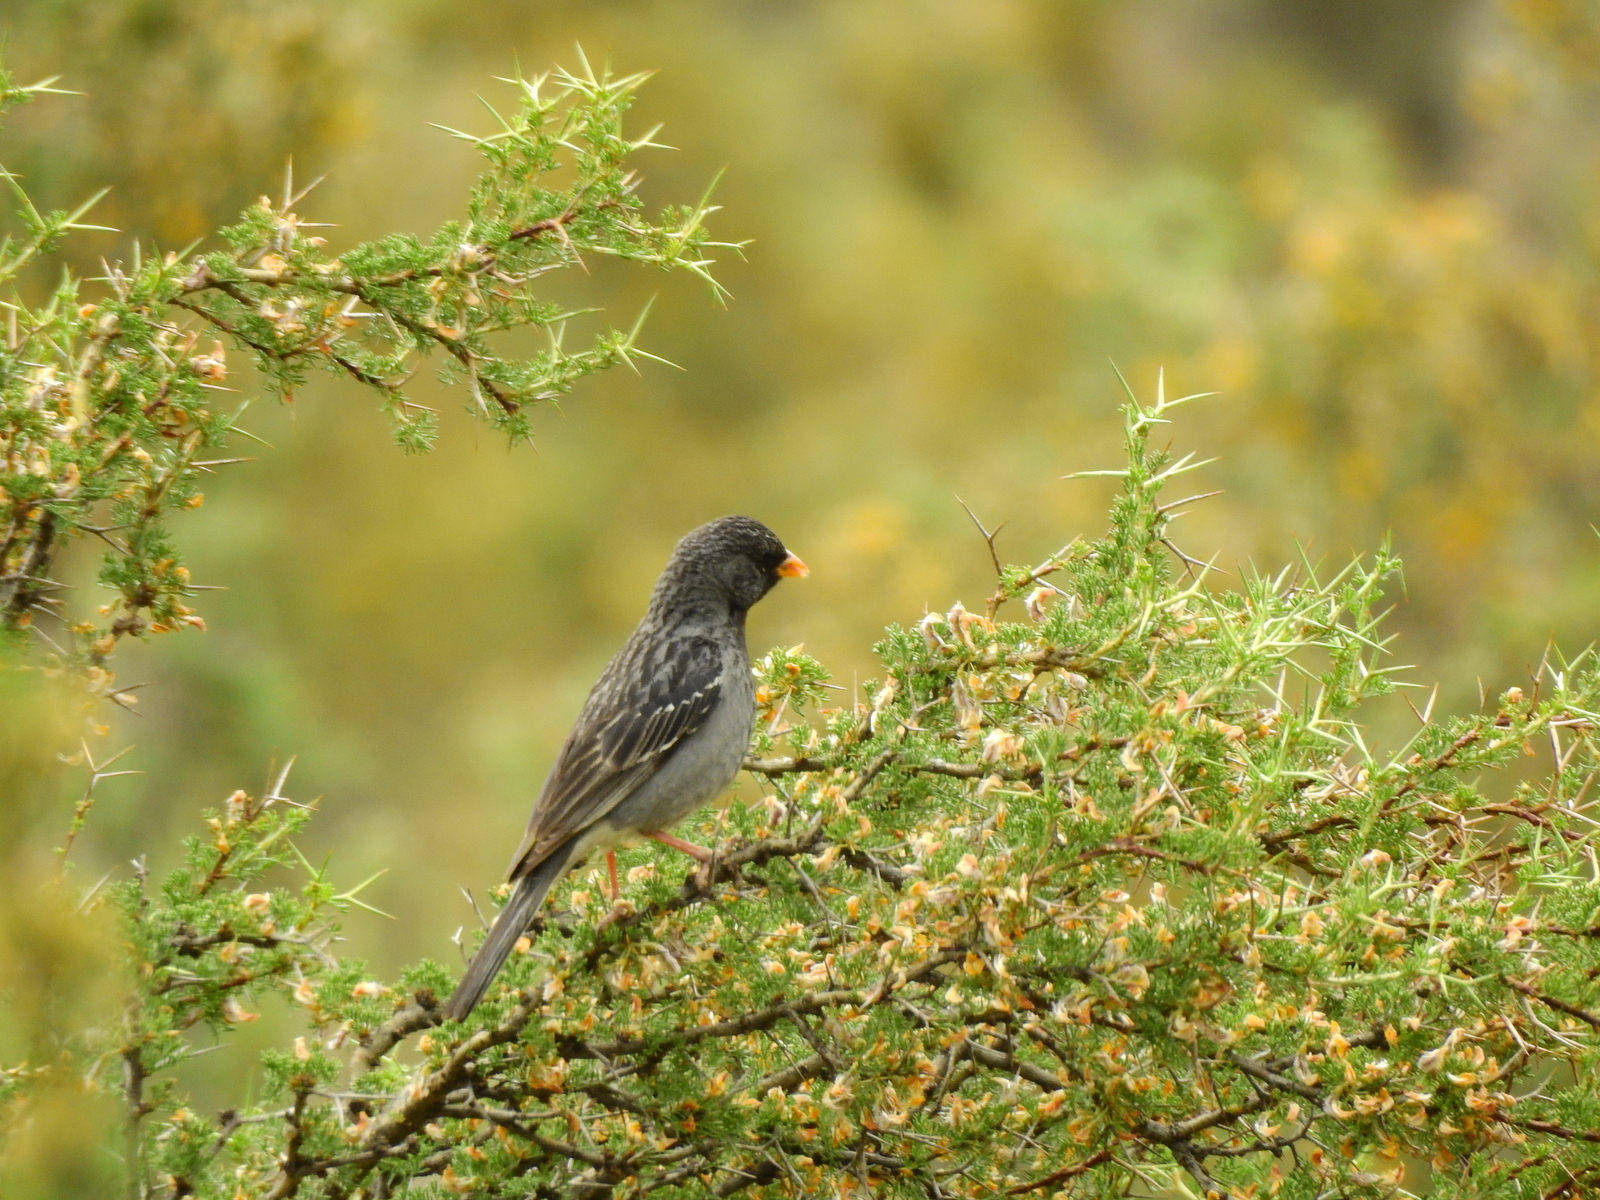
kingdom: Animalia
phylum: Chordata
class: Aves
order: Passeriformes
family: Thraupidae
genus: Rhopospina
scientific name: Rhopospina fruticeti
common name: Mourning sierra finch
